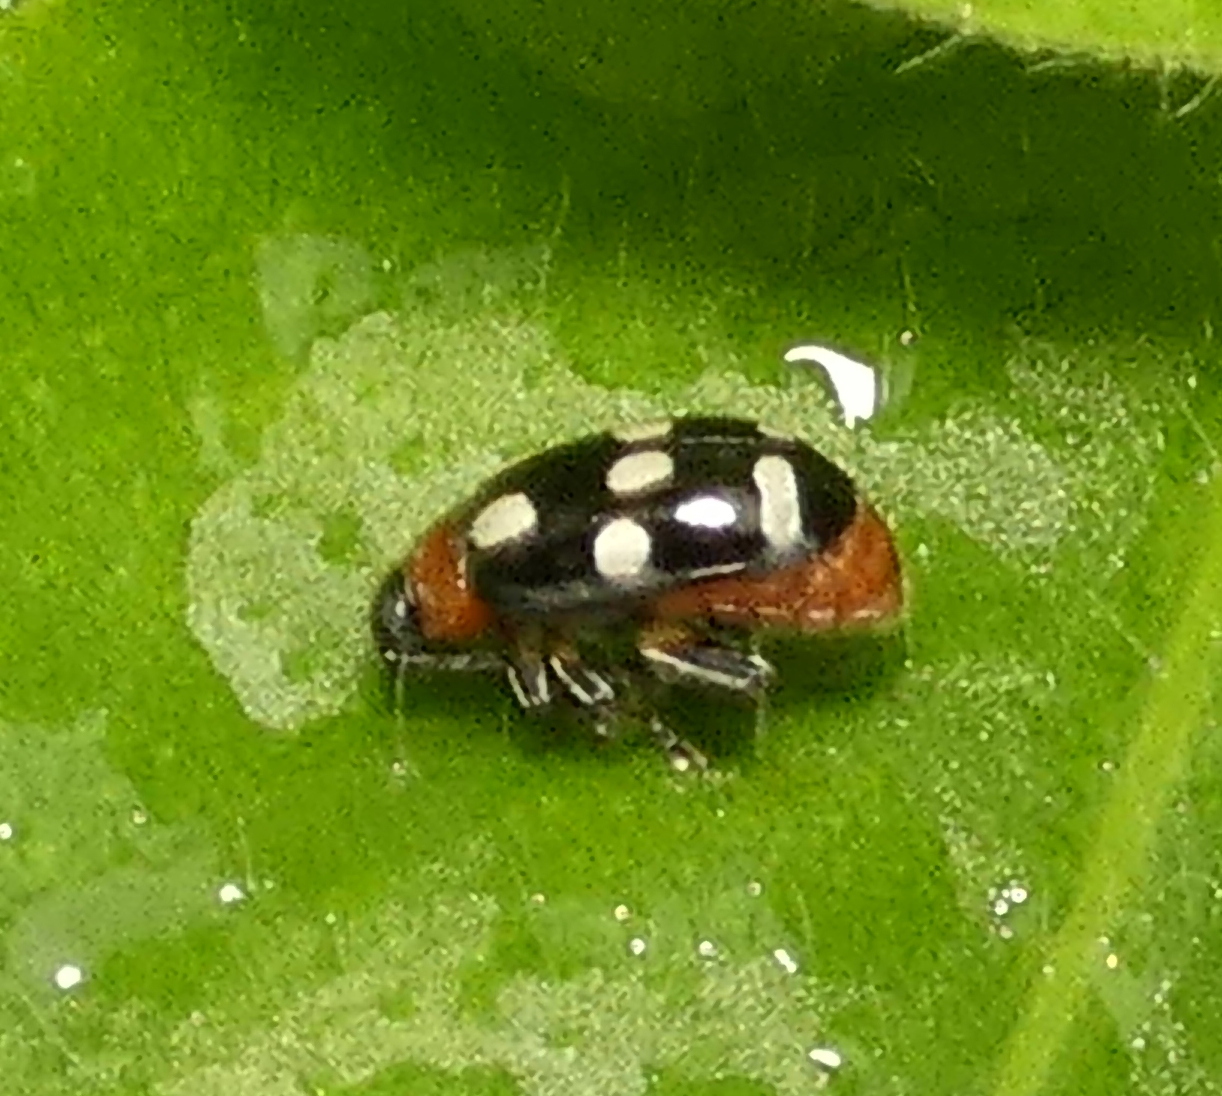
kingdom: Animalia
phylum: Arthropoda
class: Insecta
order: Coleoptera
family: Chrysomelidae
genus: Phenrica
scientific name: Phenrica austriaca
